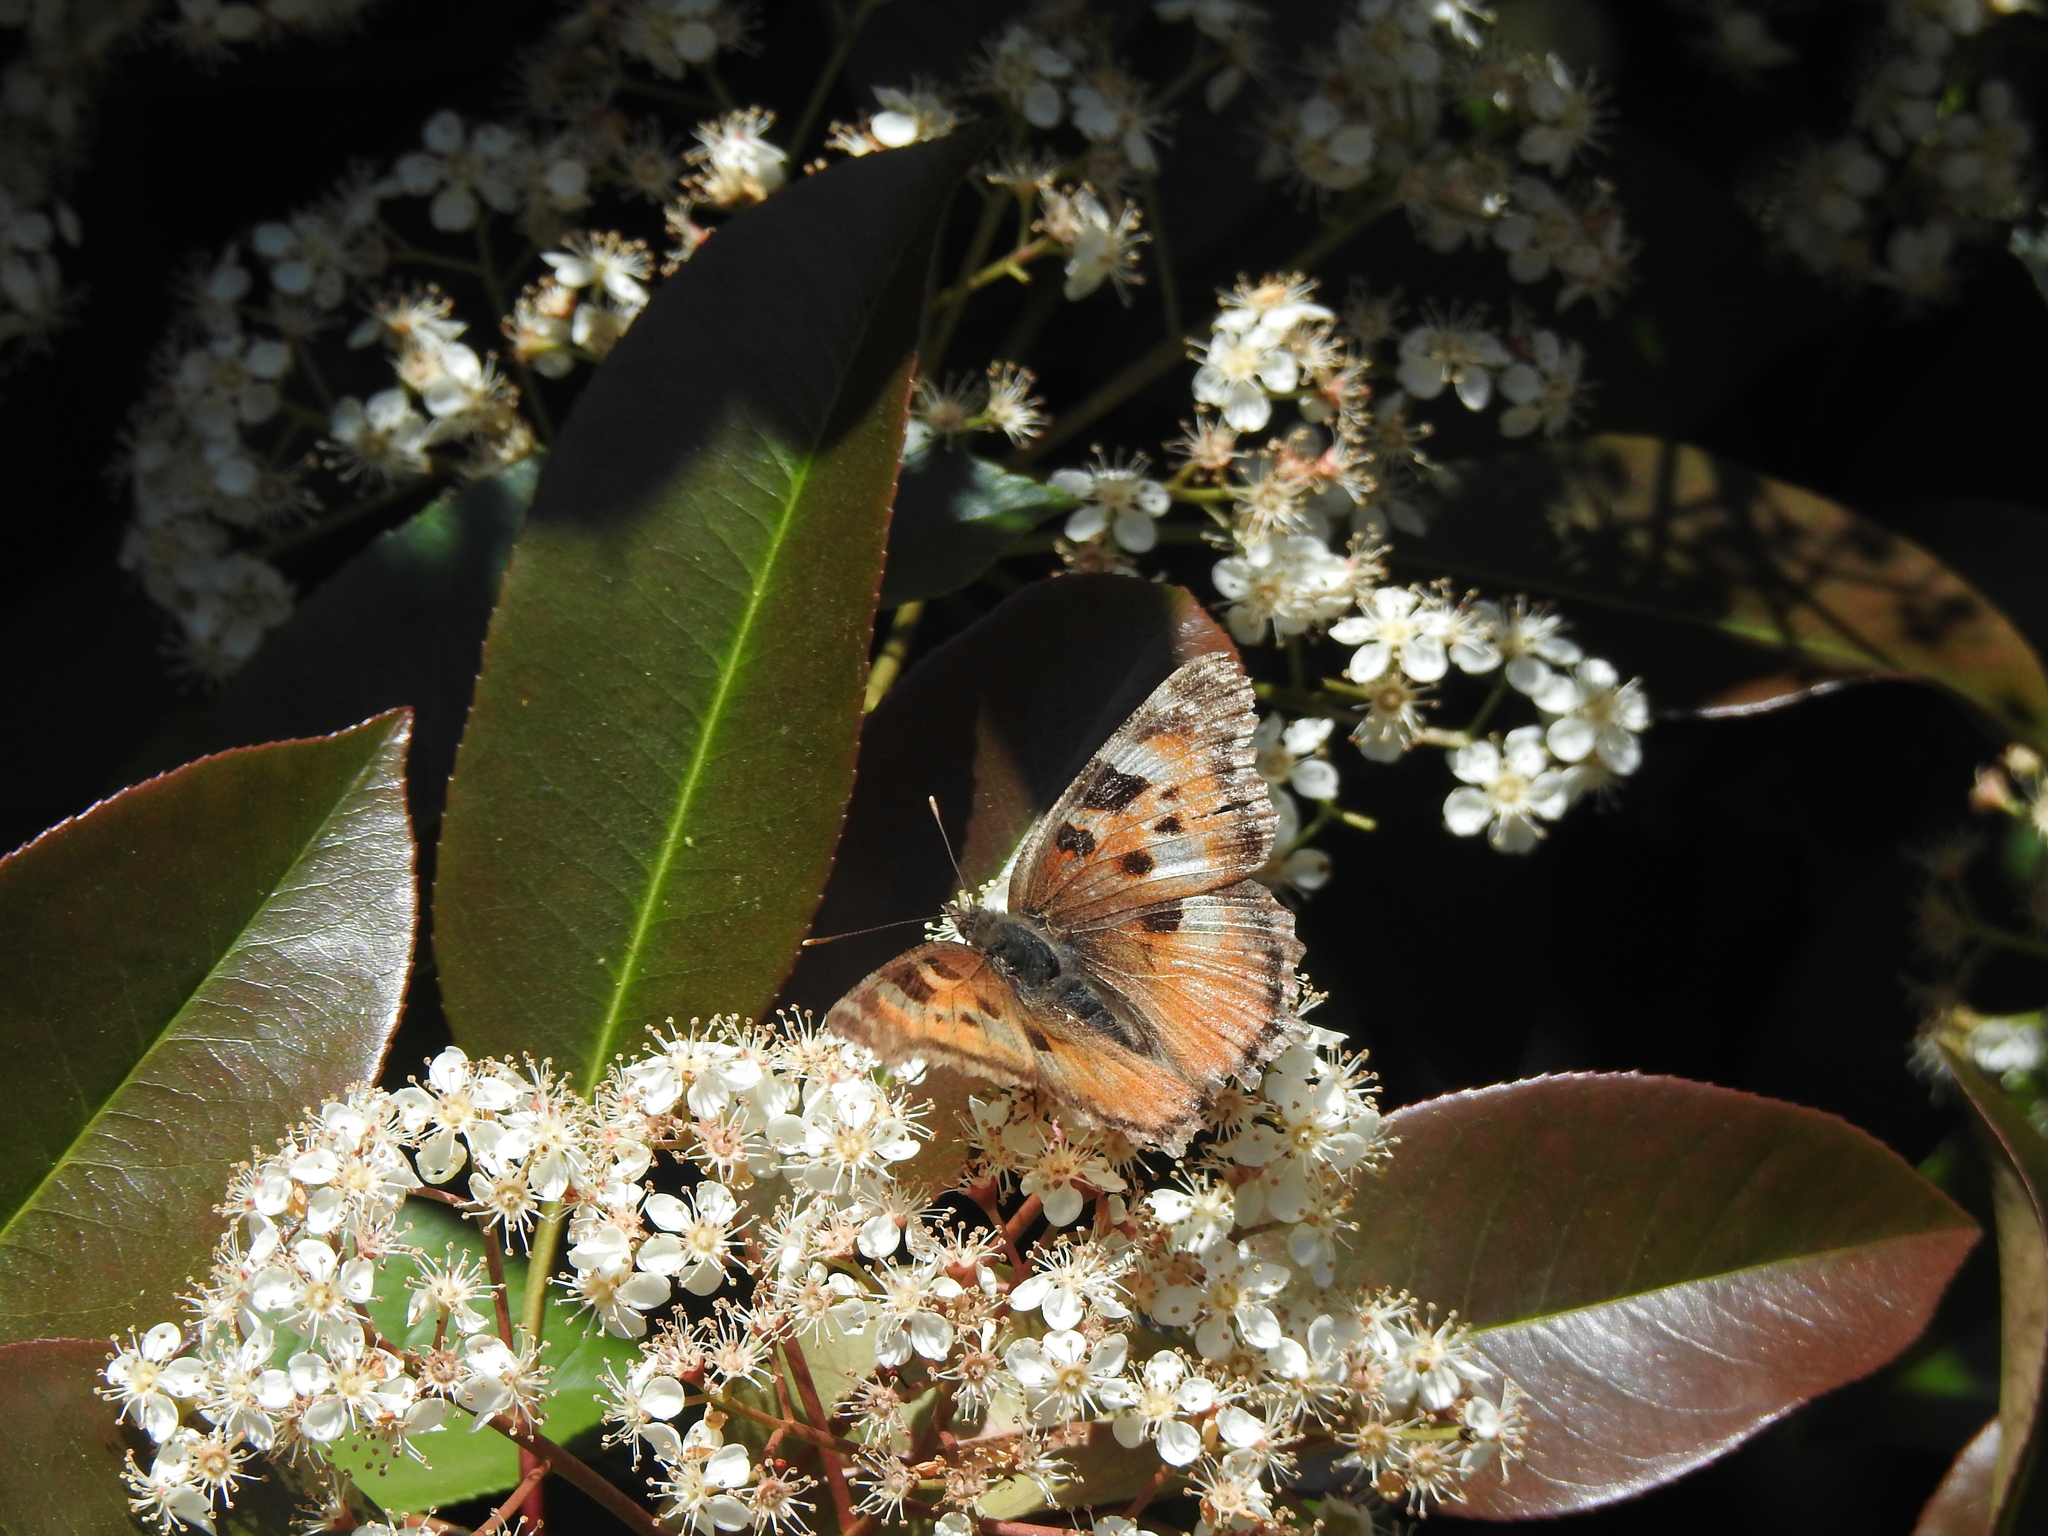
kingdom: Animalia
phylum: Arthropoda
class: Insecta
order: Lepidoptera
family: Nymphalidae
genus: Nymphalis
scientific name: Nymphalis californica
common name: California tortoiseshell
